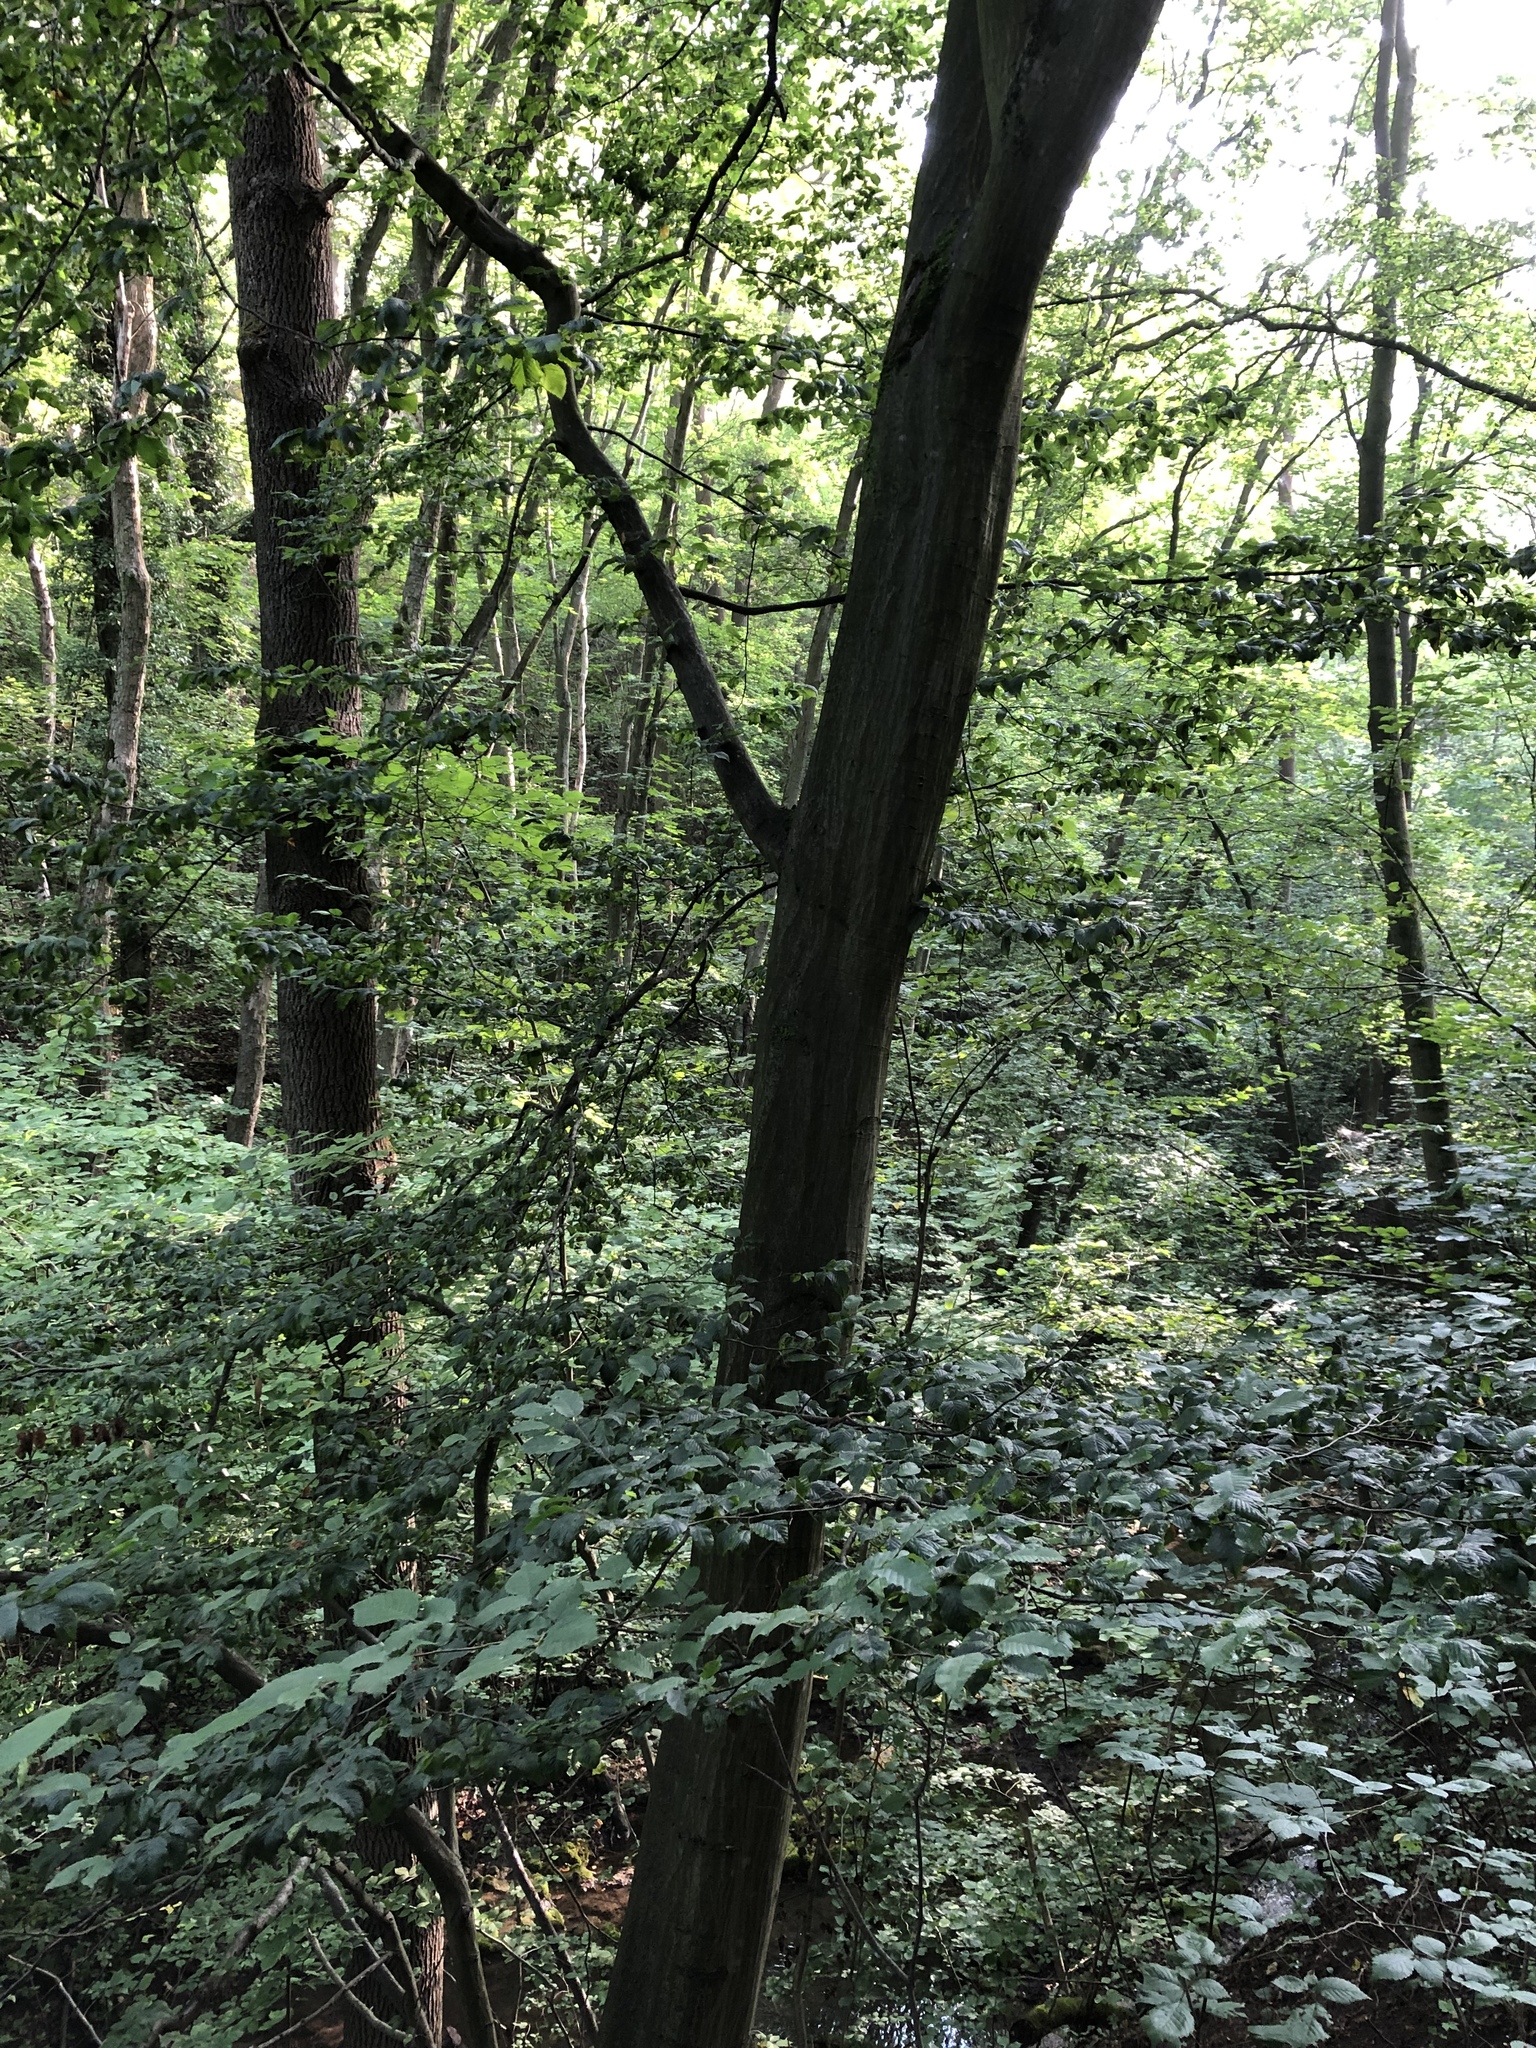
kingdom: Plantae
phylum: Tracheophyta
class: Magnoliopsida
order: Fagales
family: Betulaceae
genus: Carpinus
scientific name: Carpinus betulus
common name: Hornbeam
